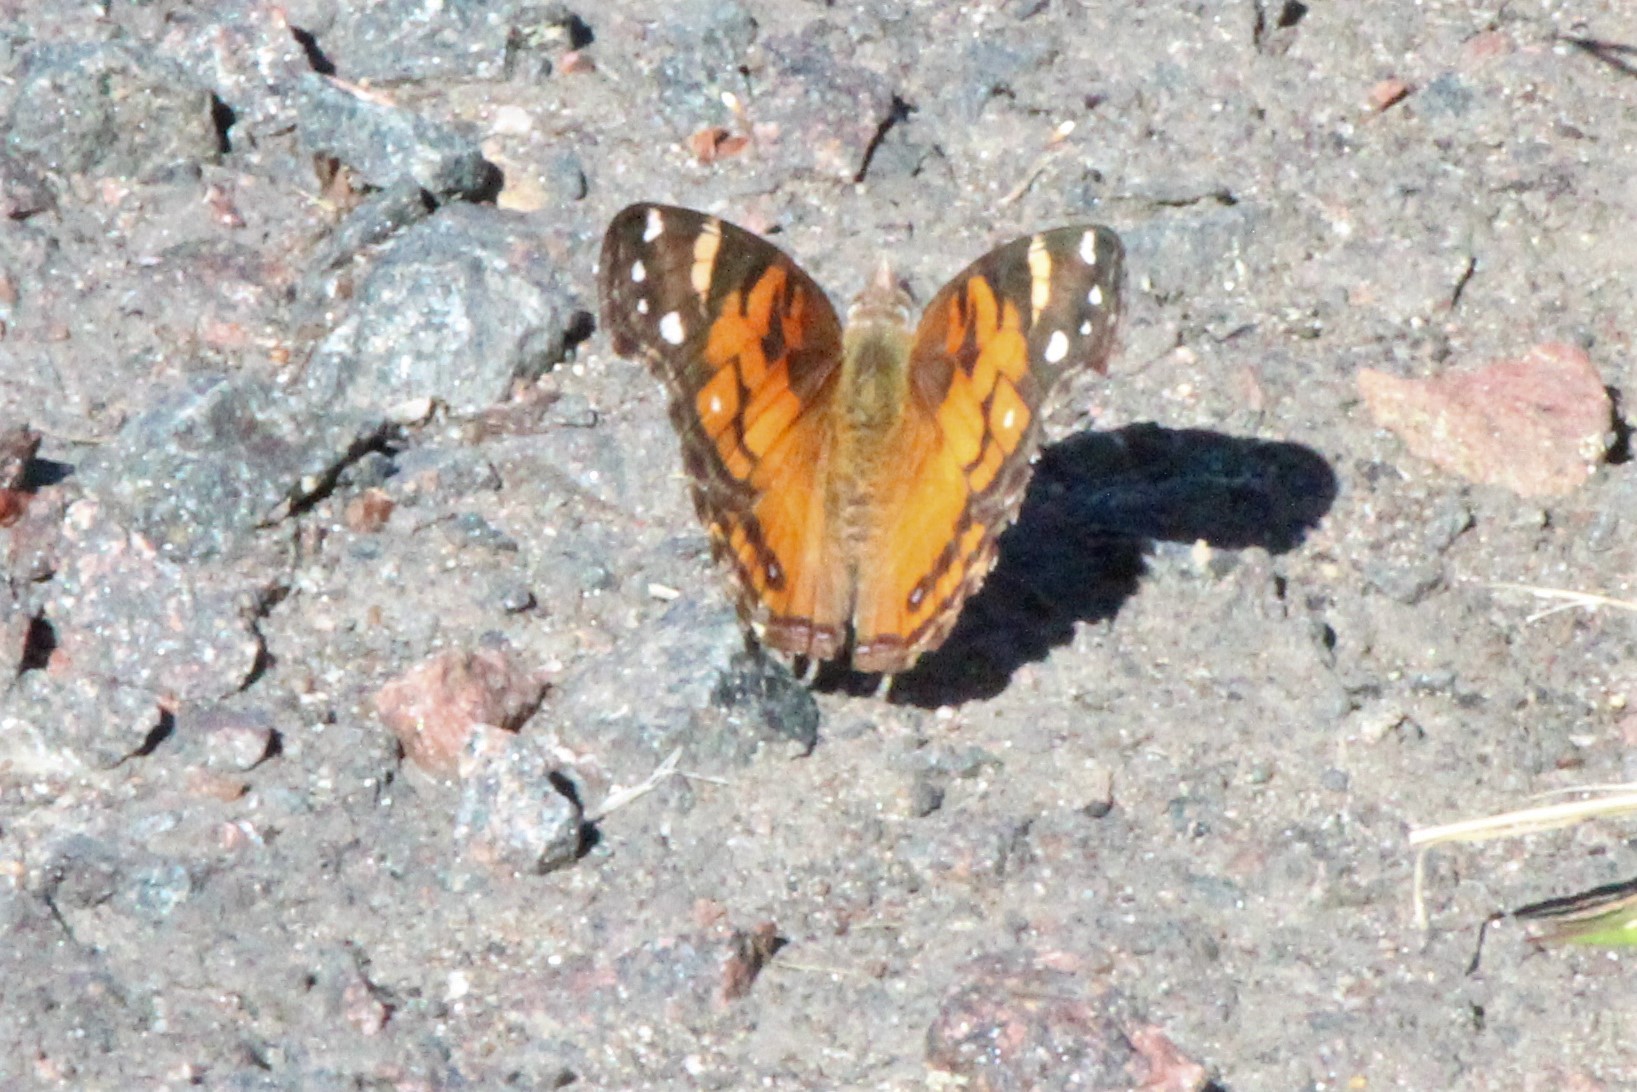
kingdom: Animalia
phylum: Arthropoda
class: Insecta
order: Lepidoptera
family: Nymphalidae
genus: Vanessa
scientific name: Vanessa virginiensis
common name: American lady
